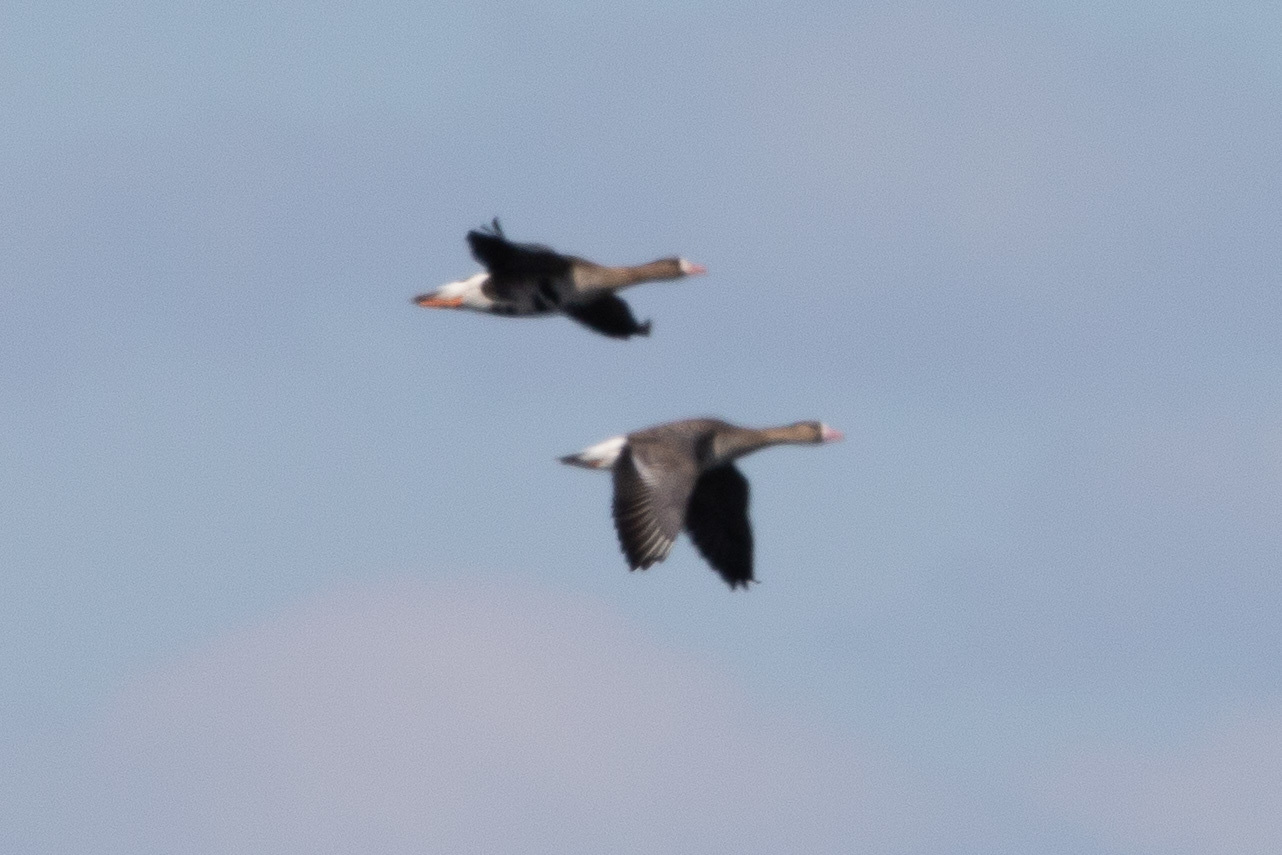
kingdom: Animalia
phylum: Chordata
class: Aves
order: Anseriformes
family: Anatidae
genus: Anser
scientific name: Anser albifrons
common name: Greater white-fronted goose
